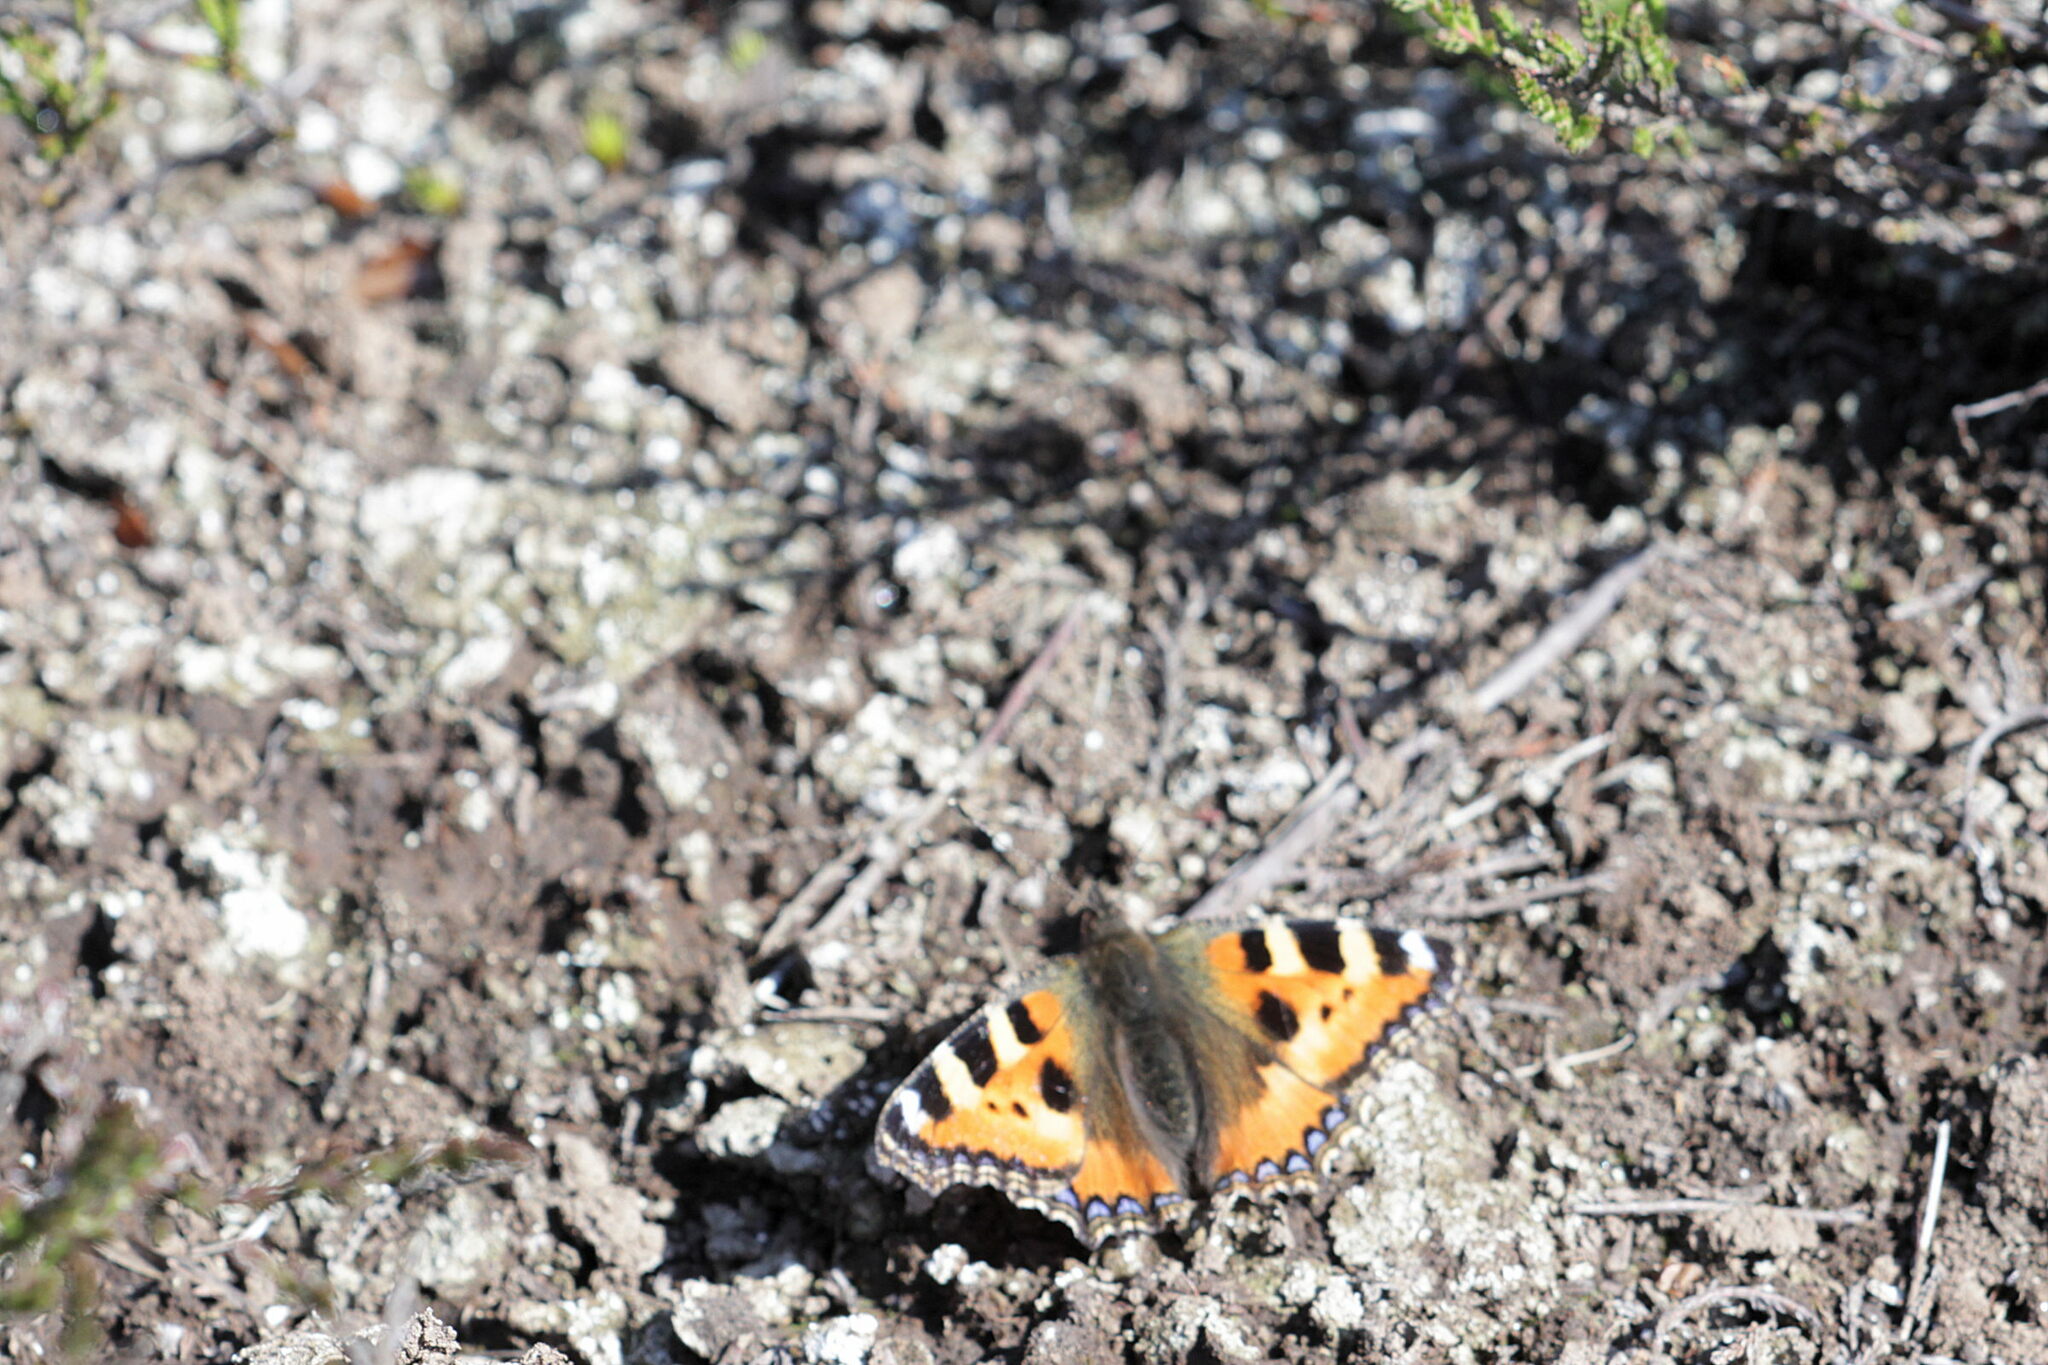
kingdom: Animalia
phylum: Arthropoda
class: Insecta
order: Lepidoptera
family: Nymphalidae
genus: Aglais
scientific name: Aglais urticae
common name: Small tortoiseshell
